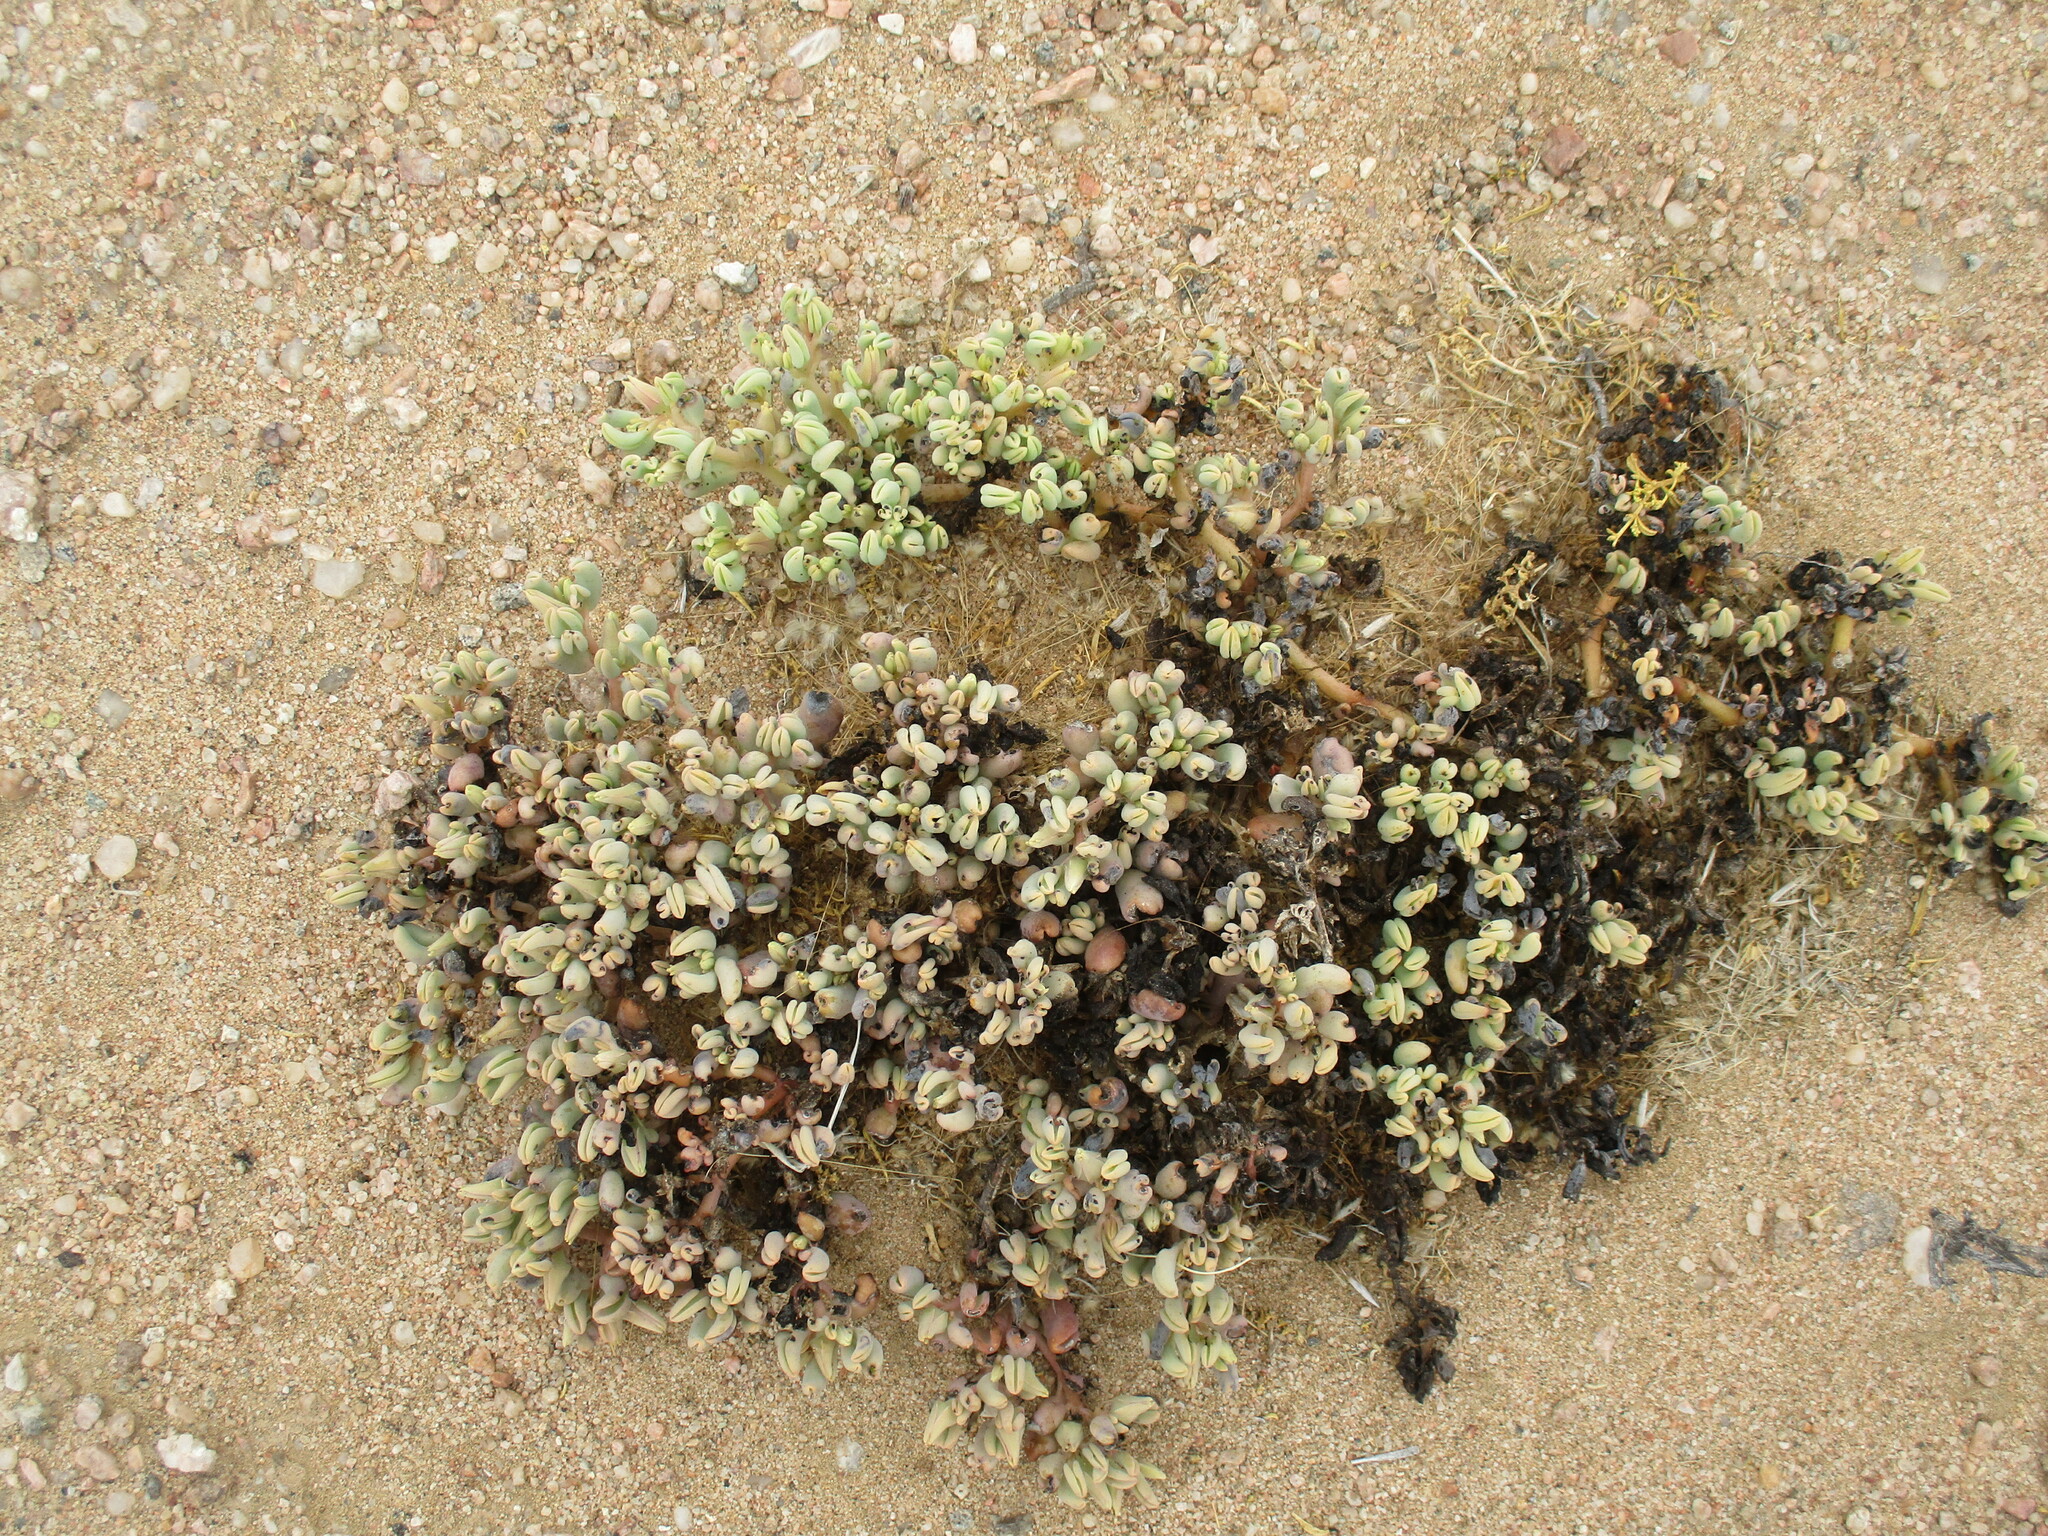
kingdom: Plantae
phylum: Tracheophyta
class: Magnoliopsida
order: Caryophyllales
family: Aizoaceae
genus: Sesuvium
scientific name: Sesuvium sesuvioides
